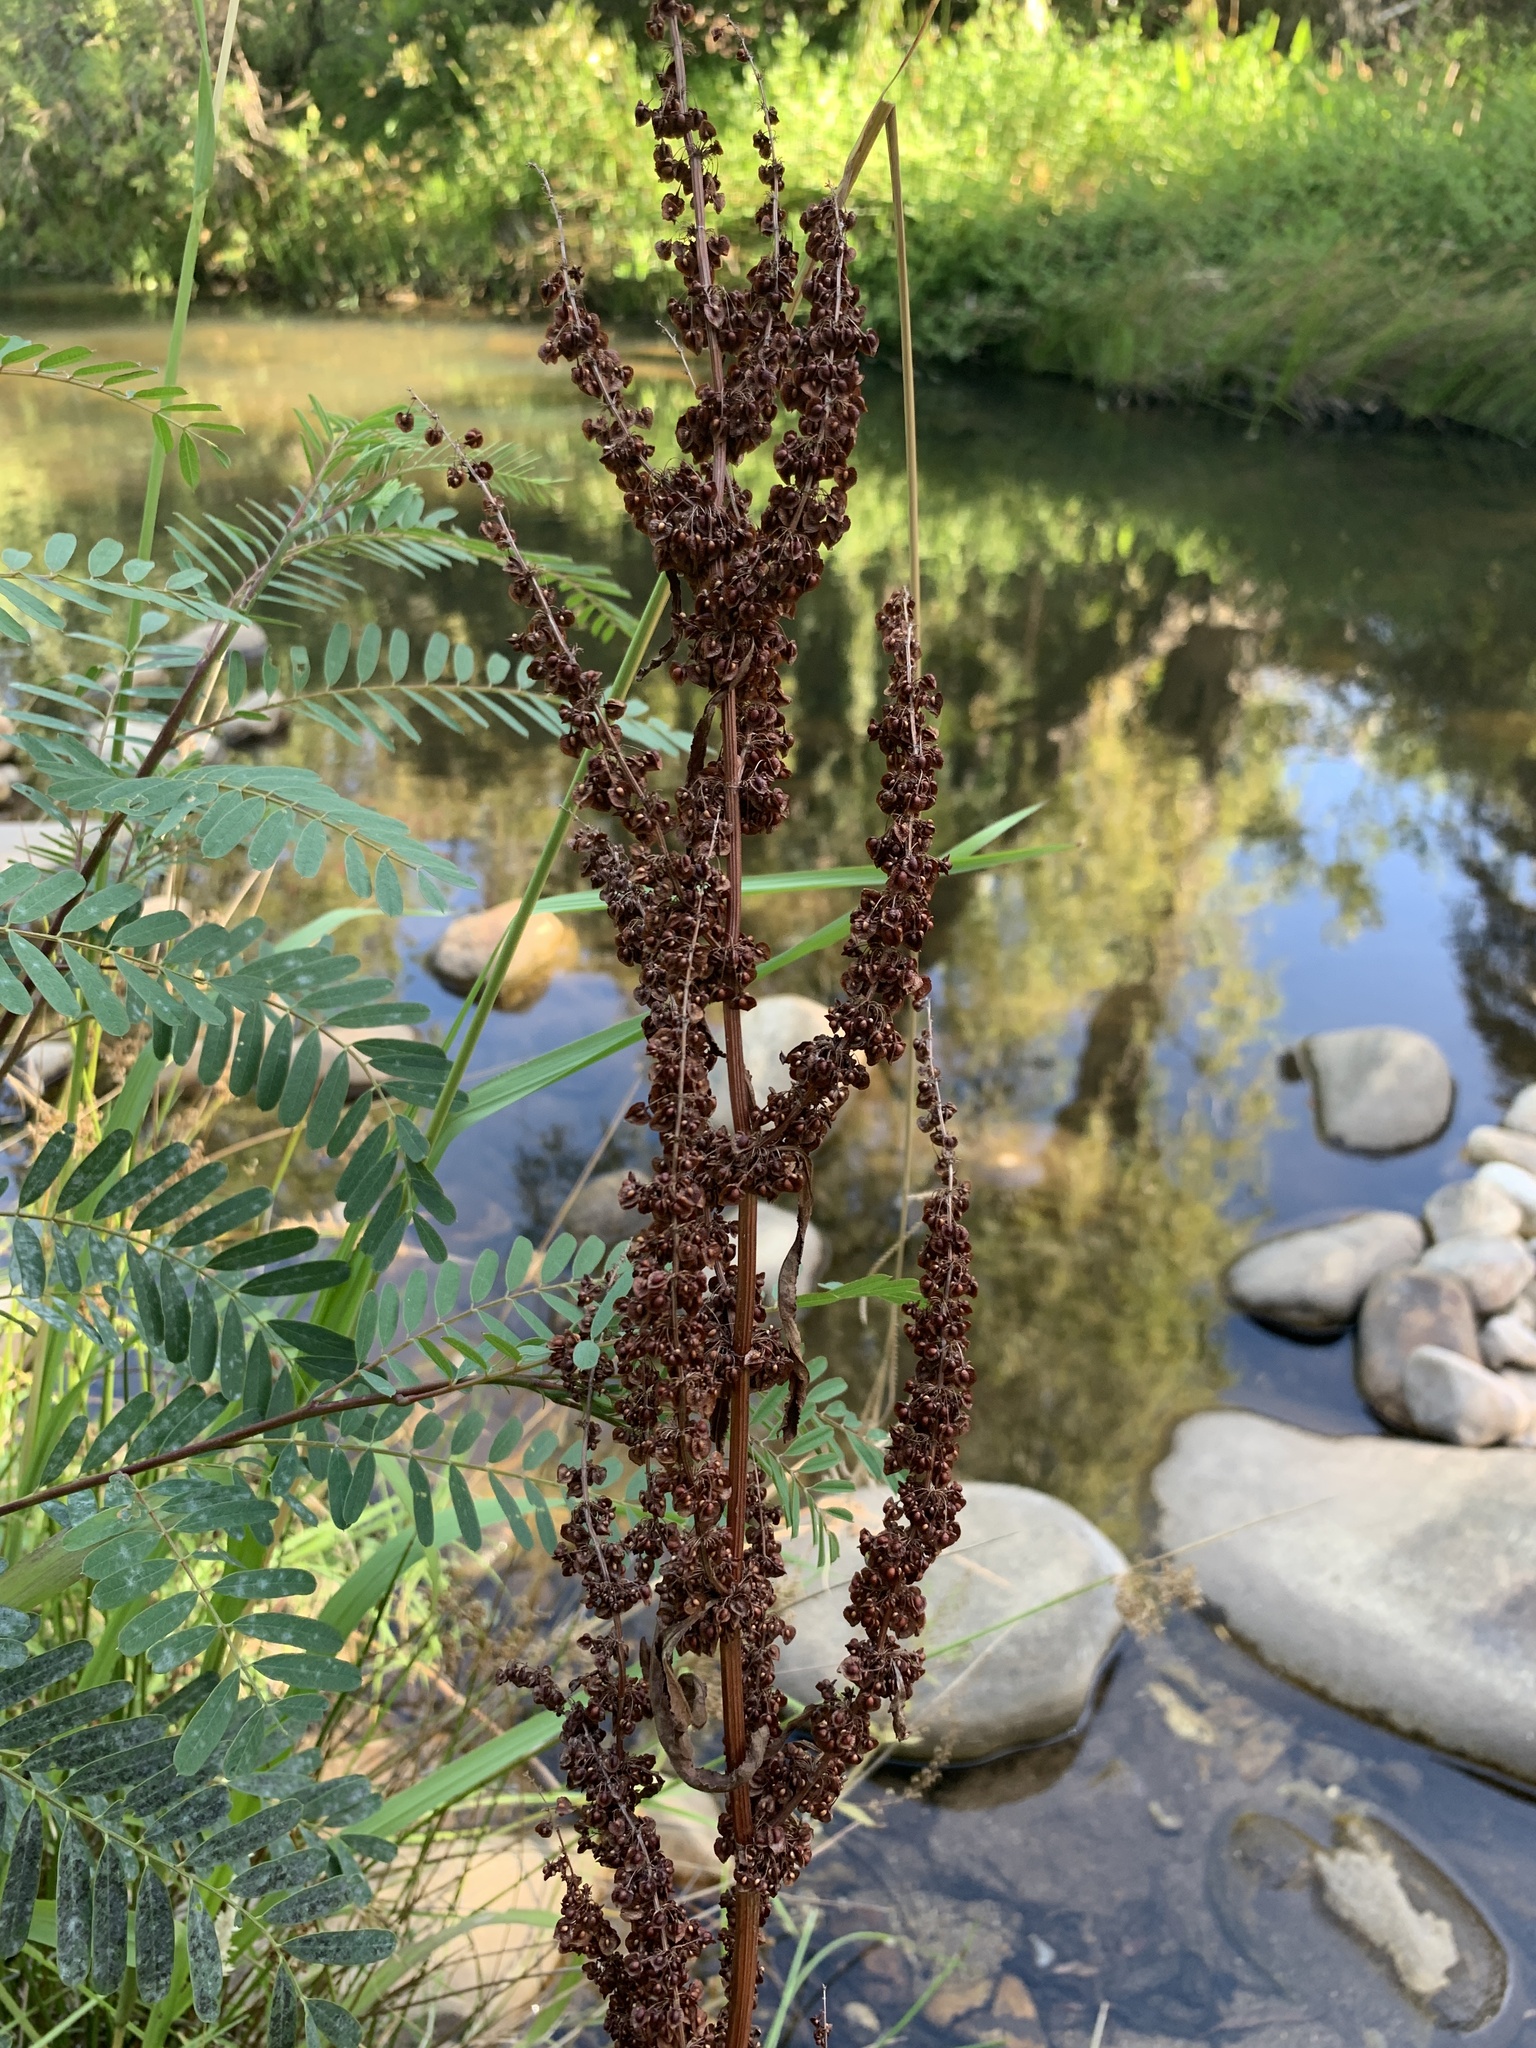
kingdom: Plantae
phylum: Tracheophyta
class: Magnoliopsida
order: Caryophyllales
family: Polygonaceae
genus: Rumex
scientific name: Rumex crispus
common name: Curled dock
